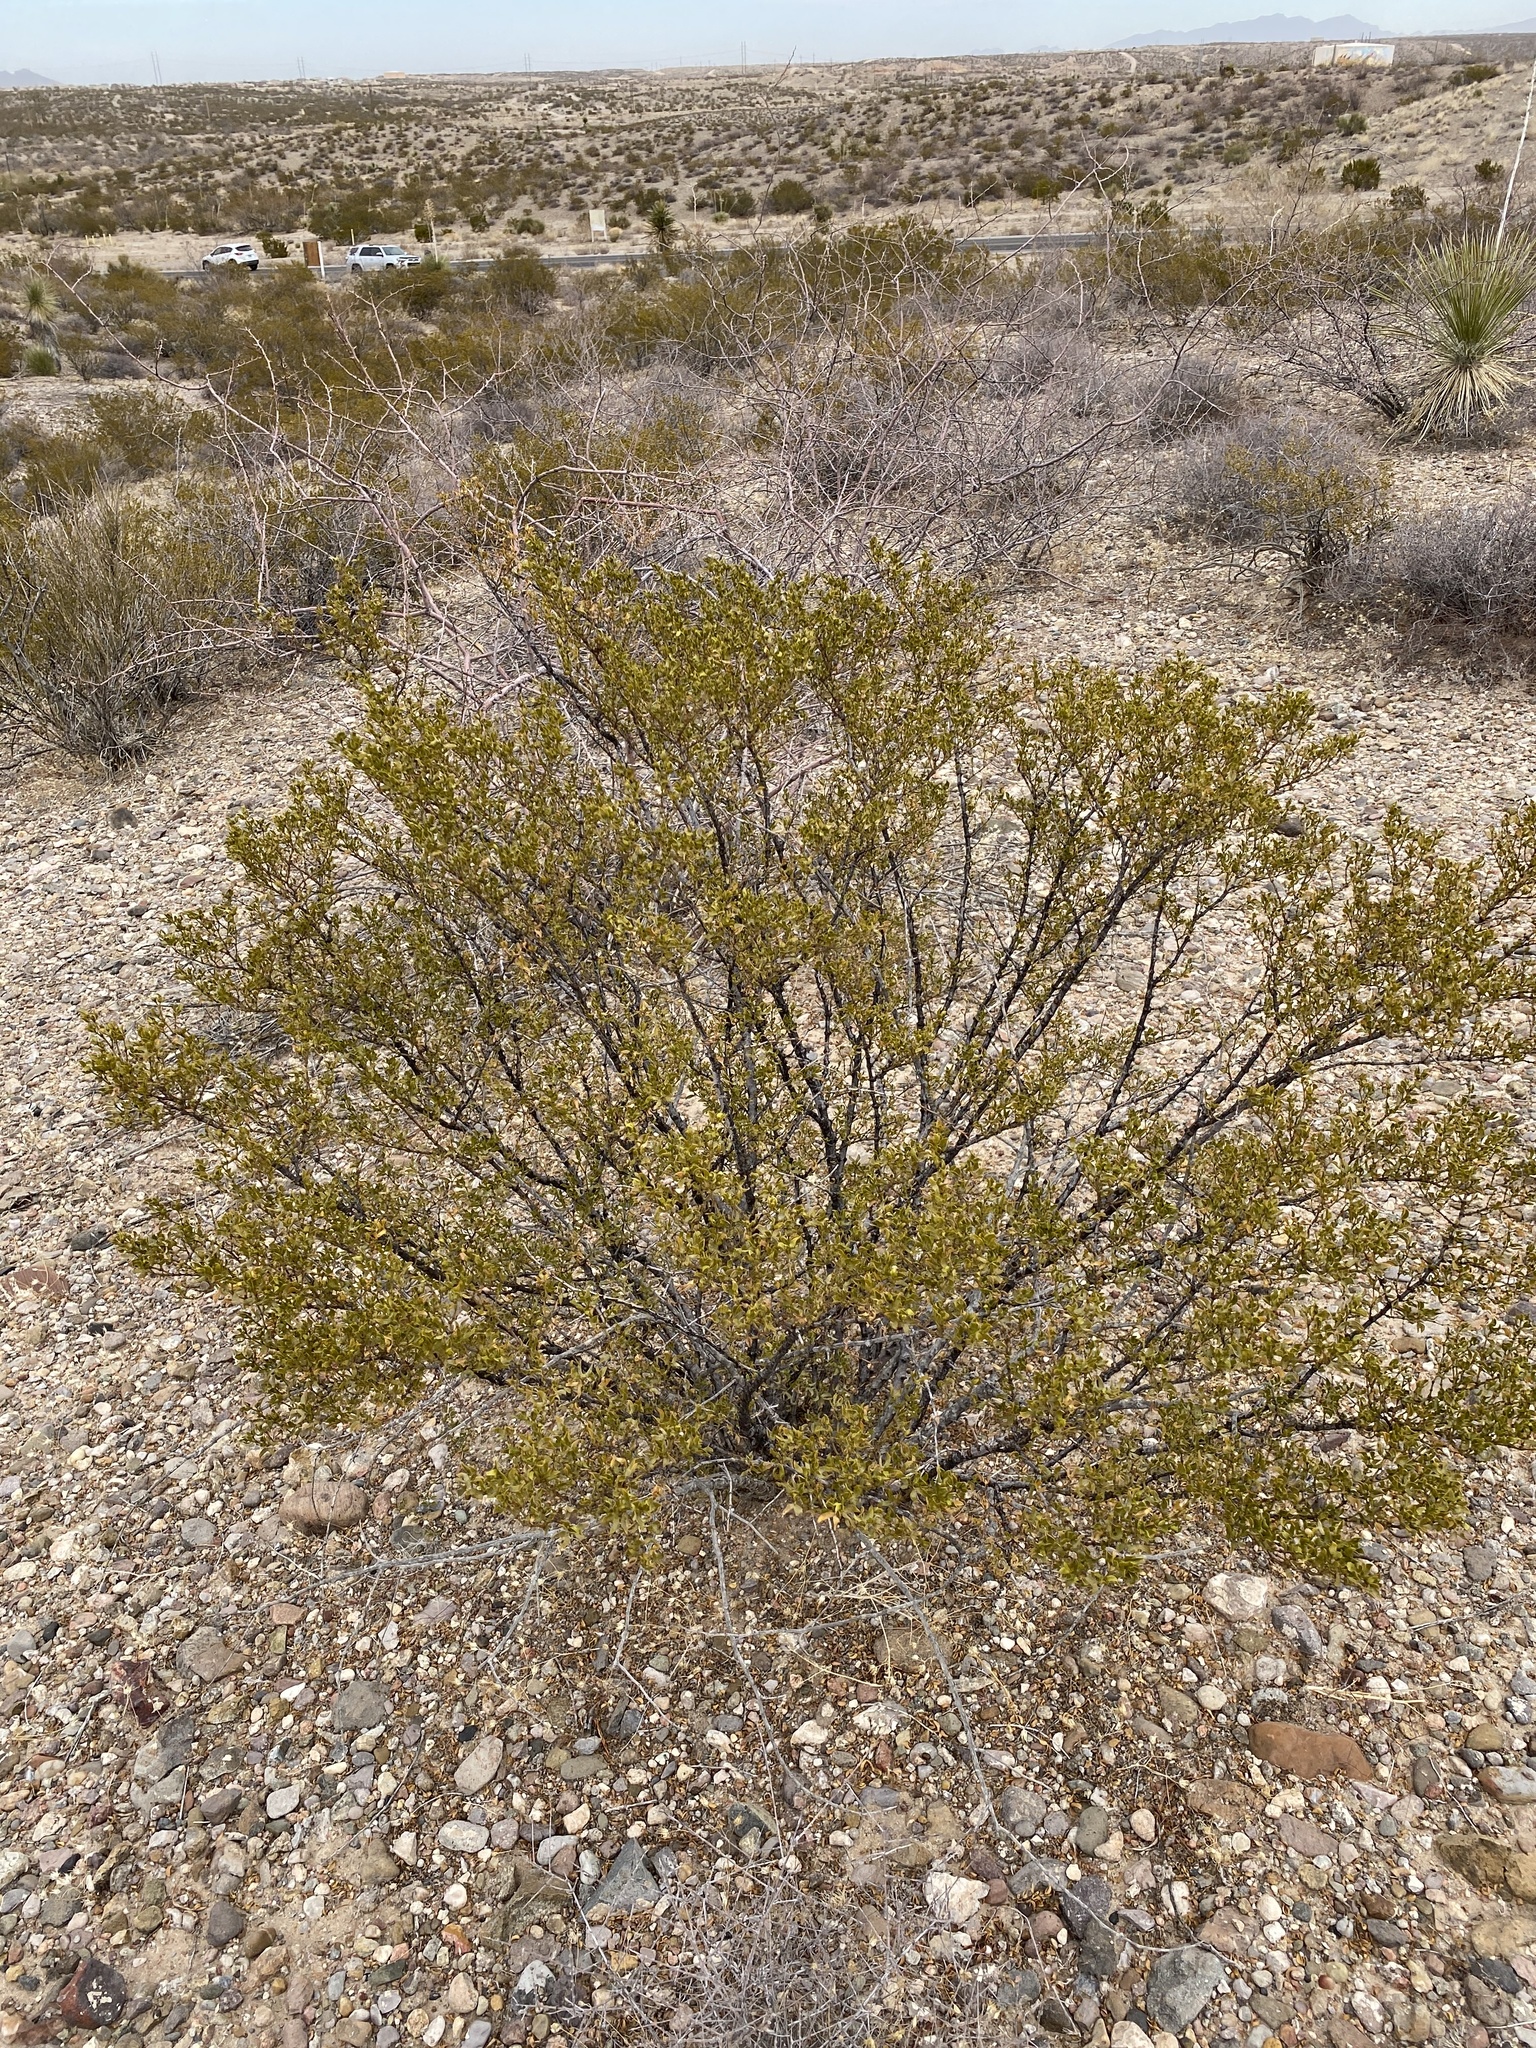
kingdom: Plantae
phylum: Tracheophyta
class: Magnoliopsida
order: Zygophyllales
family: Zygophyllaceae
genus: Larrea
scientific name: Larrea tridentata
